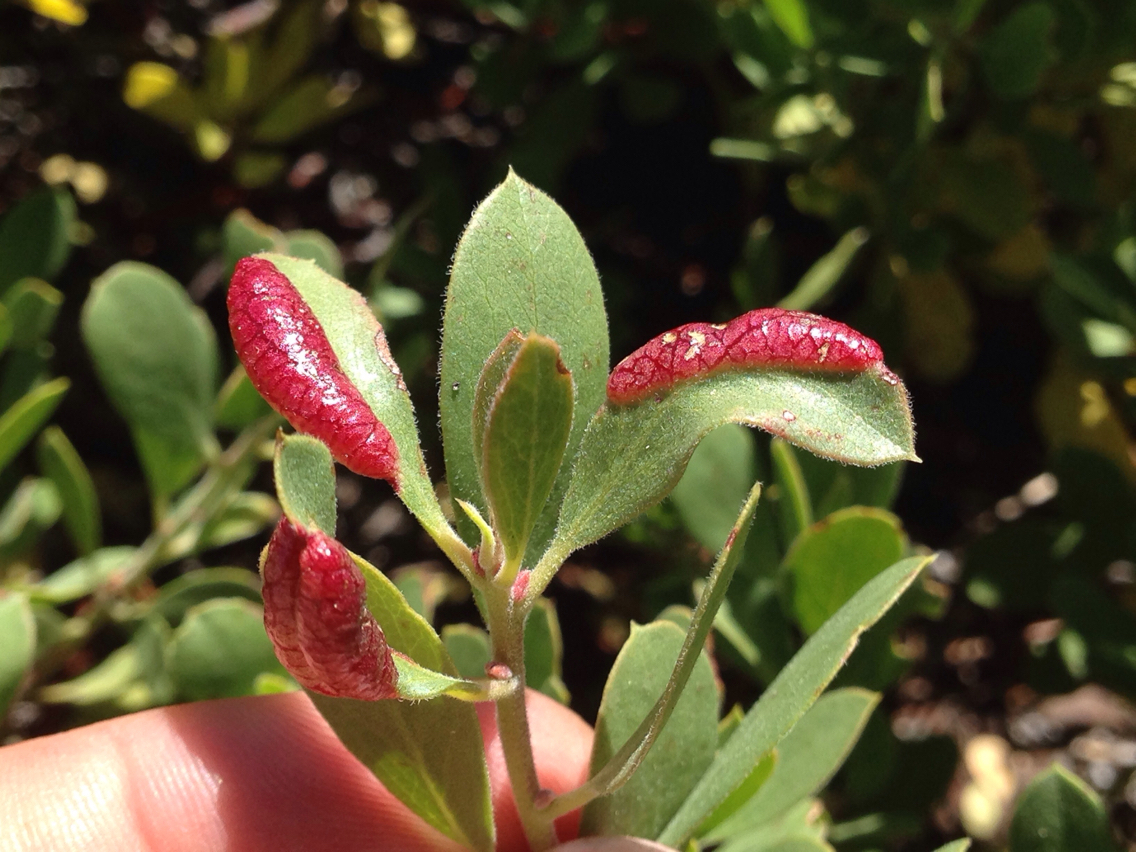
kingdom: Animalia
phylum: Arthropoda
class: Insecta
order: Hemiptera
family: Aphididae
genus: Tamalia
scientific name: Tamalia coweni
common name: Manzanita leafgall aphid
